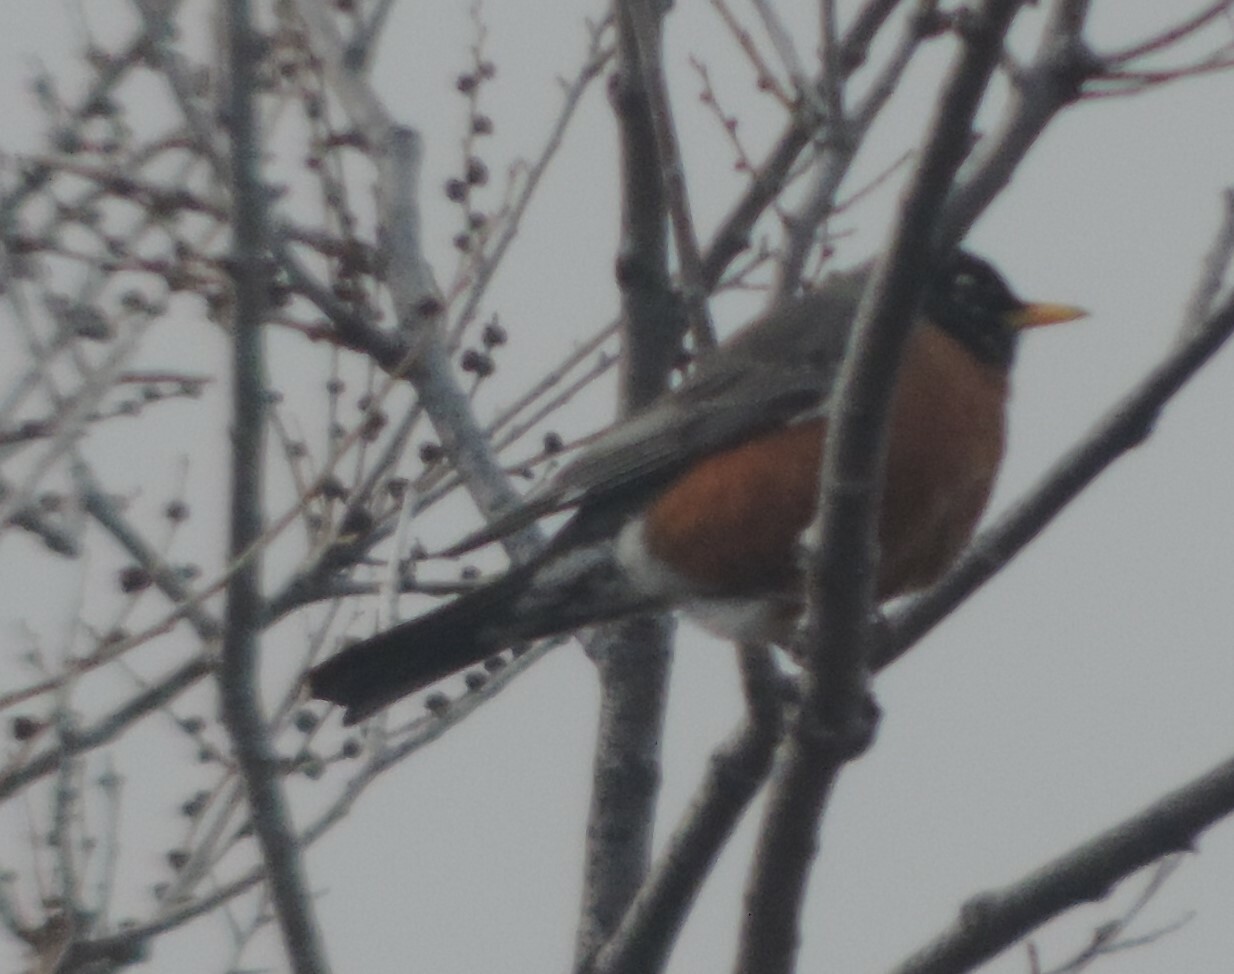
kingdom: Animalia
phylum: Chordata
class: Aves
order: Passeriformes
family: Turdidae
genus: Turdus
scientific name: Turdus migratorius
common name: American robin
